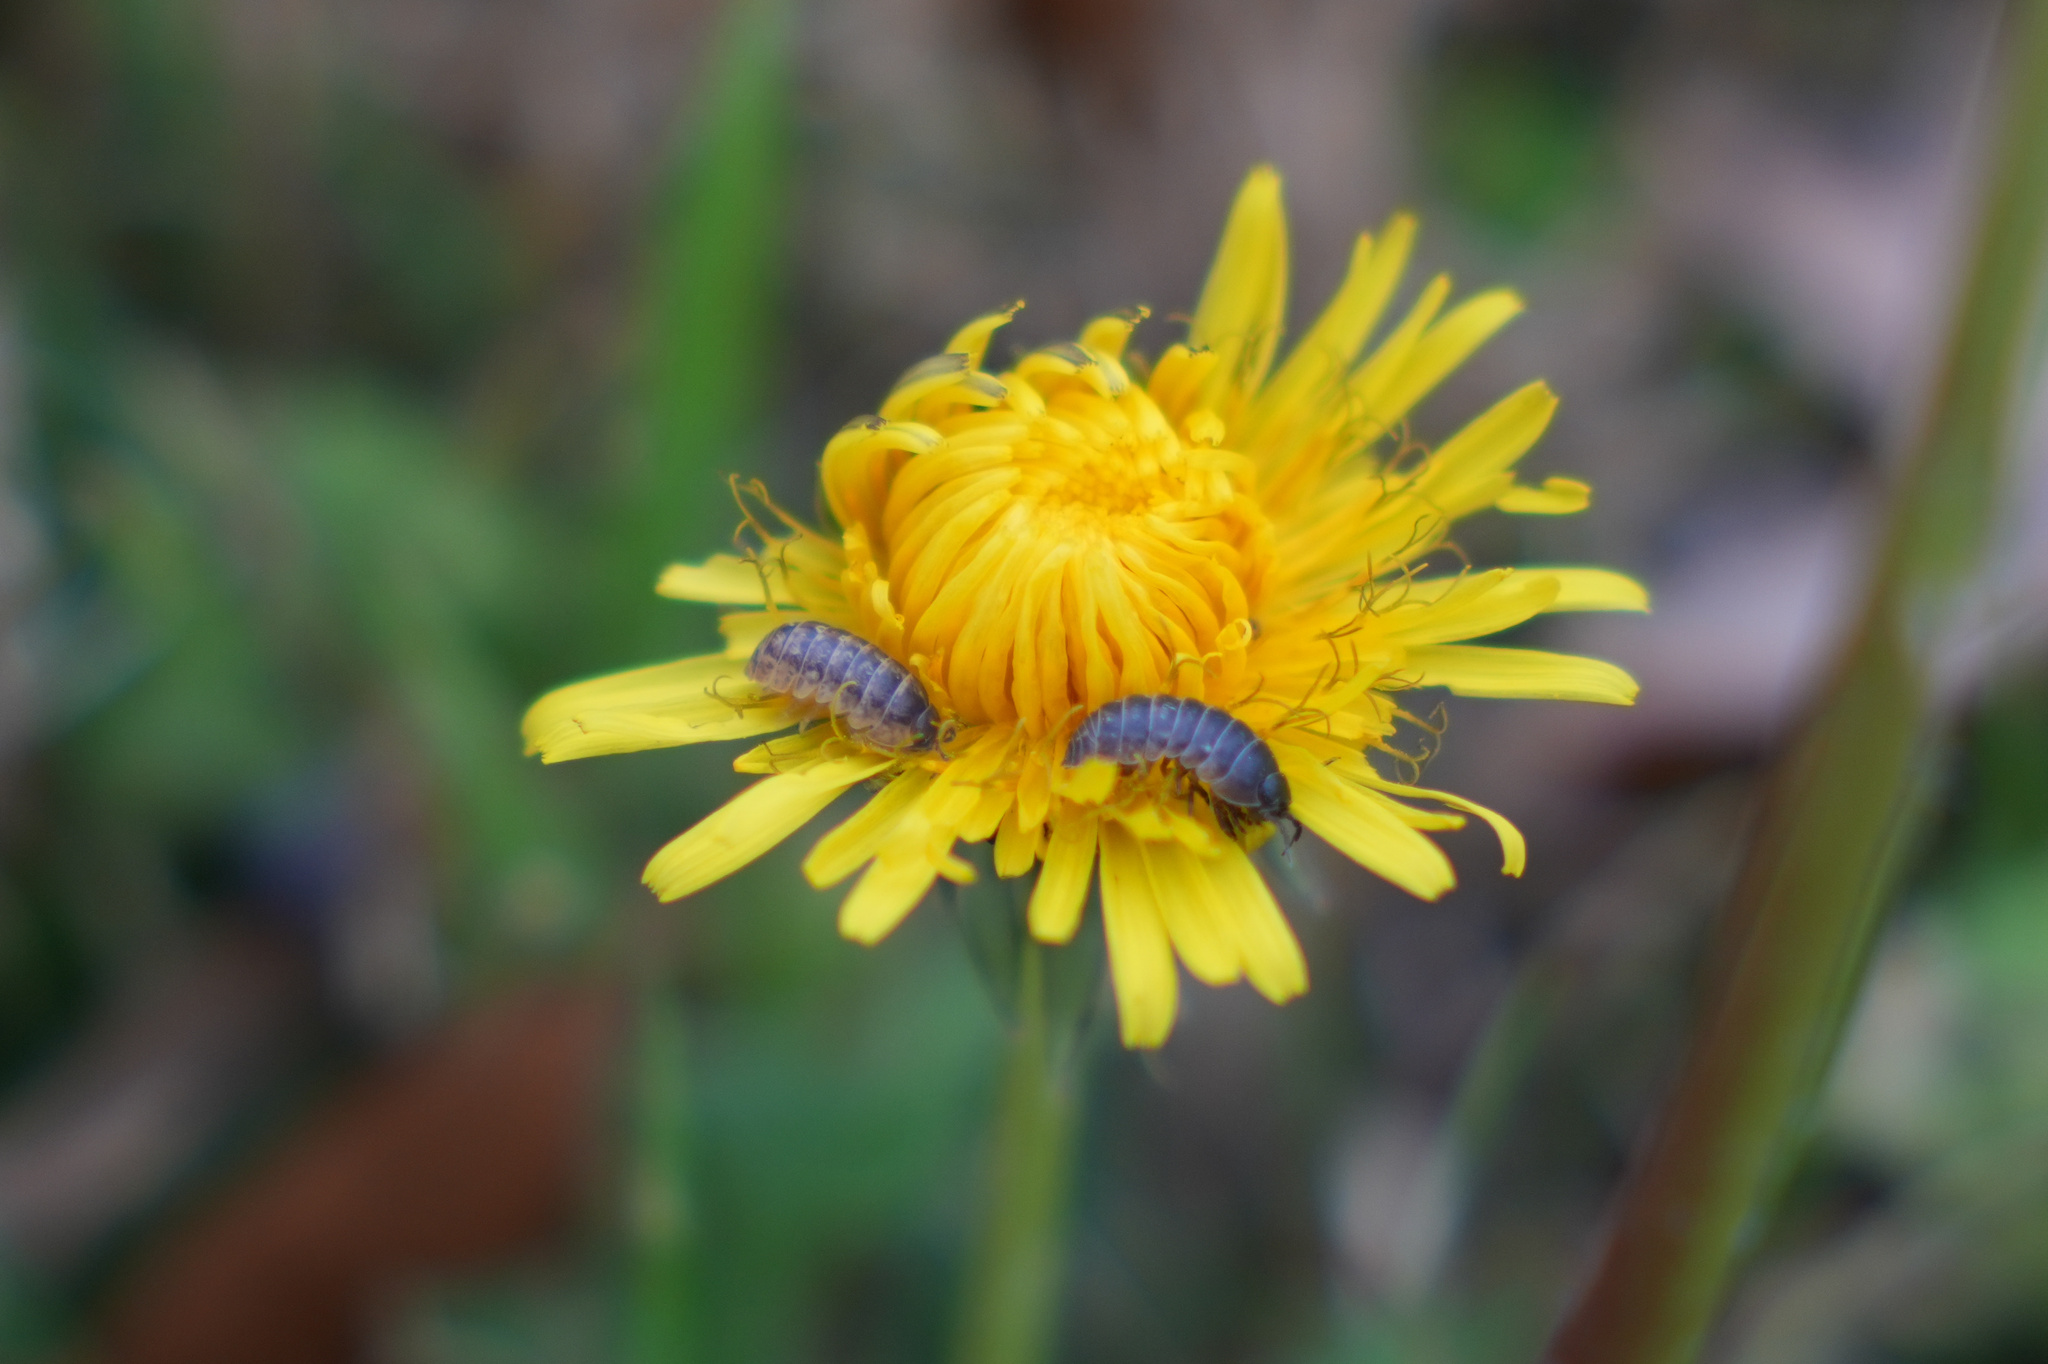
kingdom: Animalia
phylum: Arthropoda
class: Malacostraca
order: Isopoda
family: Armadillidiidae
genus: Armadillidium
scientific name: Armadillidium vulgare
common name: Common pill woodlouse
